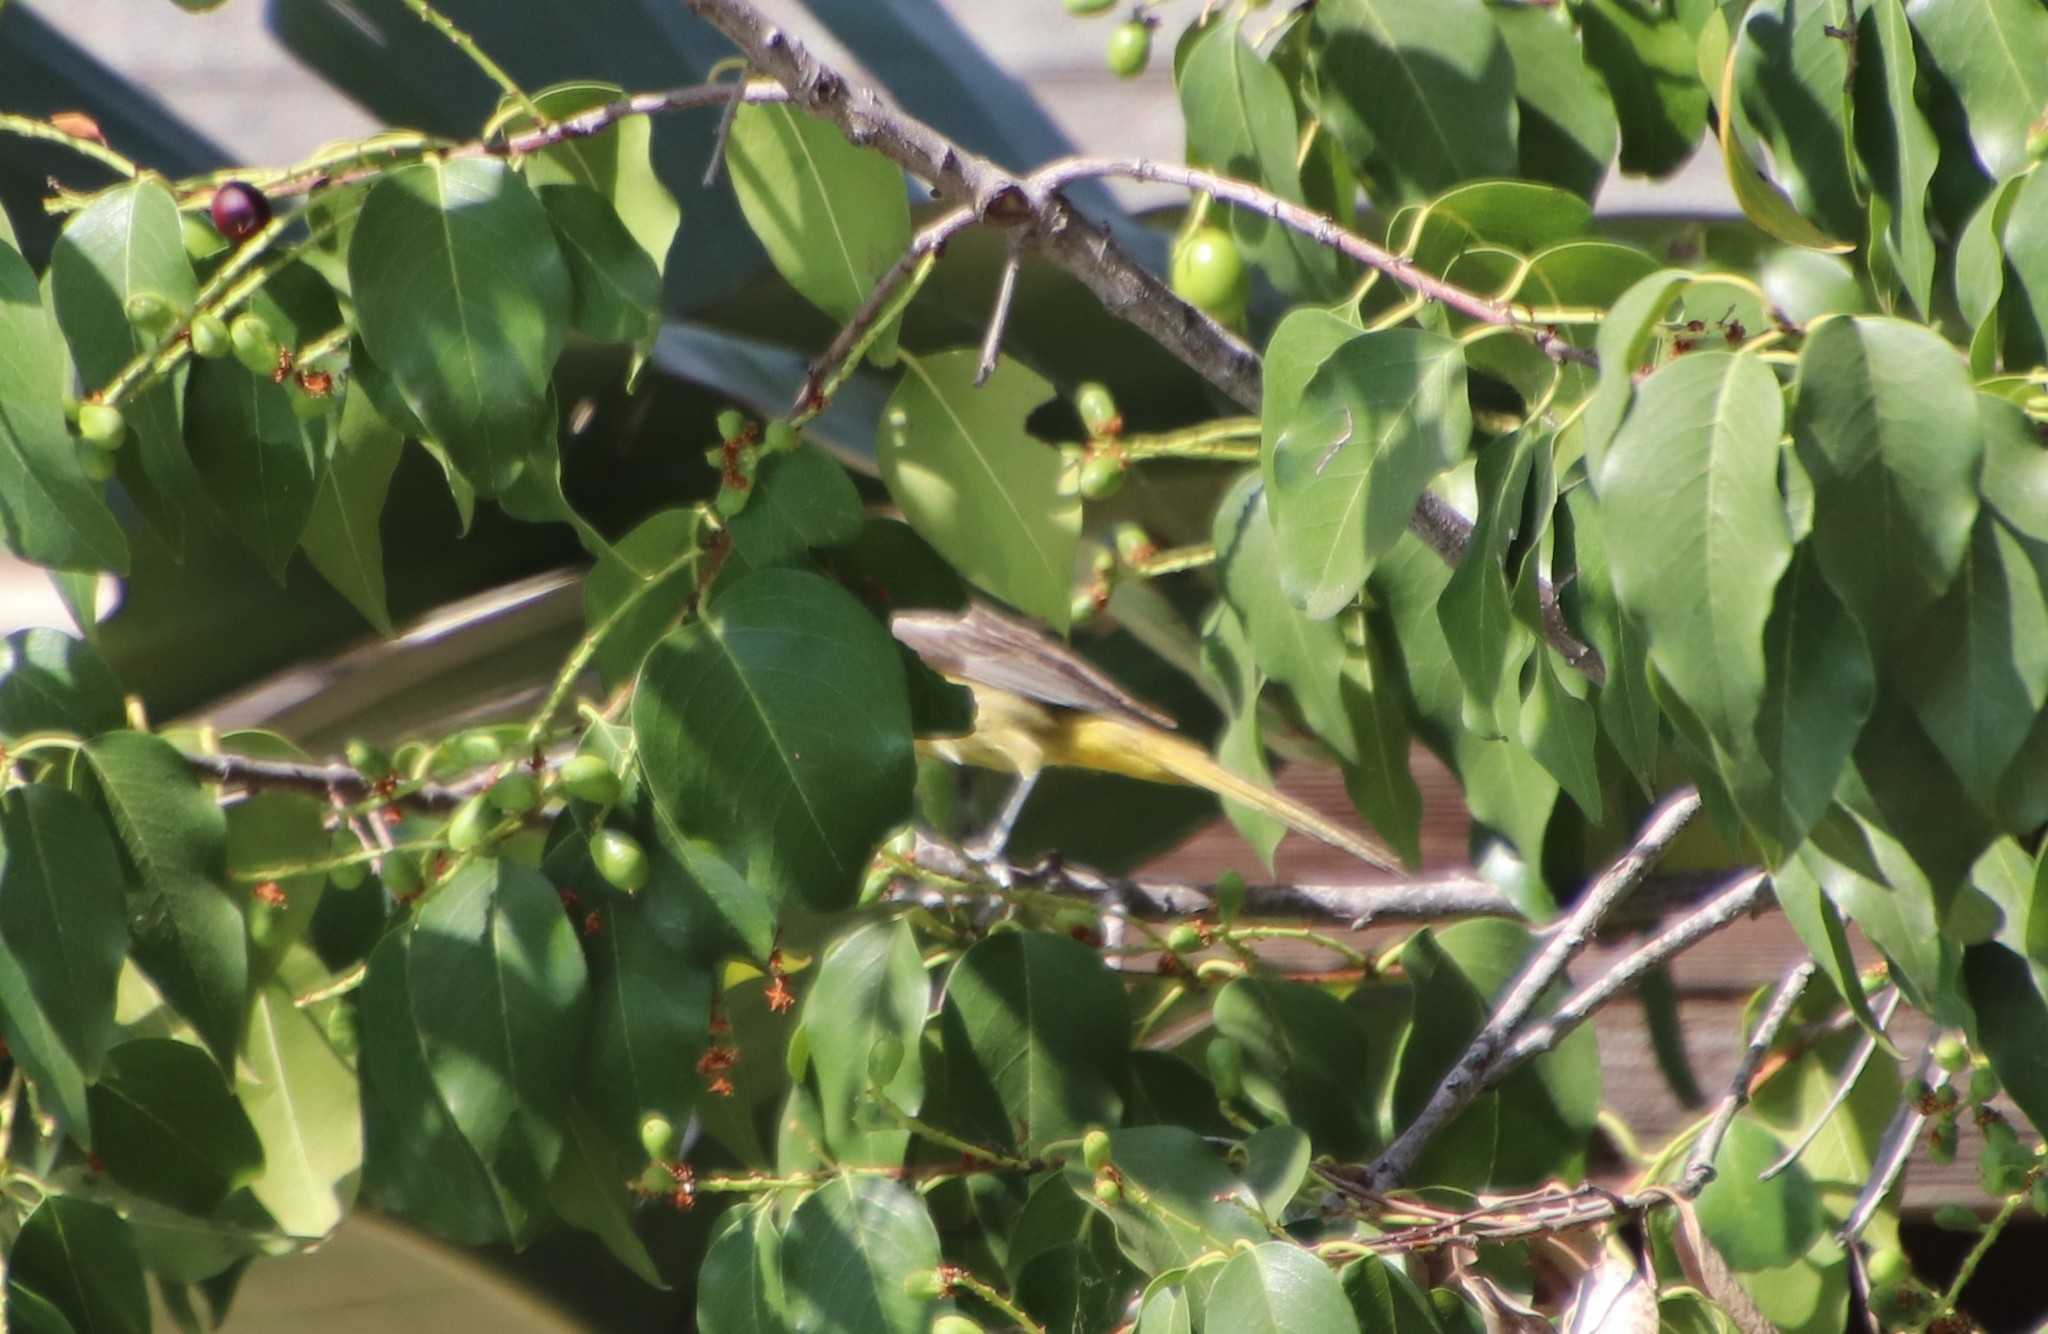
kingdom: Animalia
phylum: Chordata
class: Aves
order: Passeriformes
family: Icteridae
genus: Icterus
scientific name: Icterus cucullatus
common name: Hooded oriole
